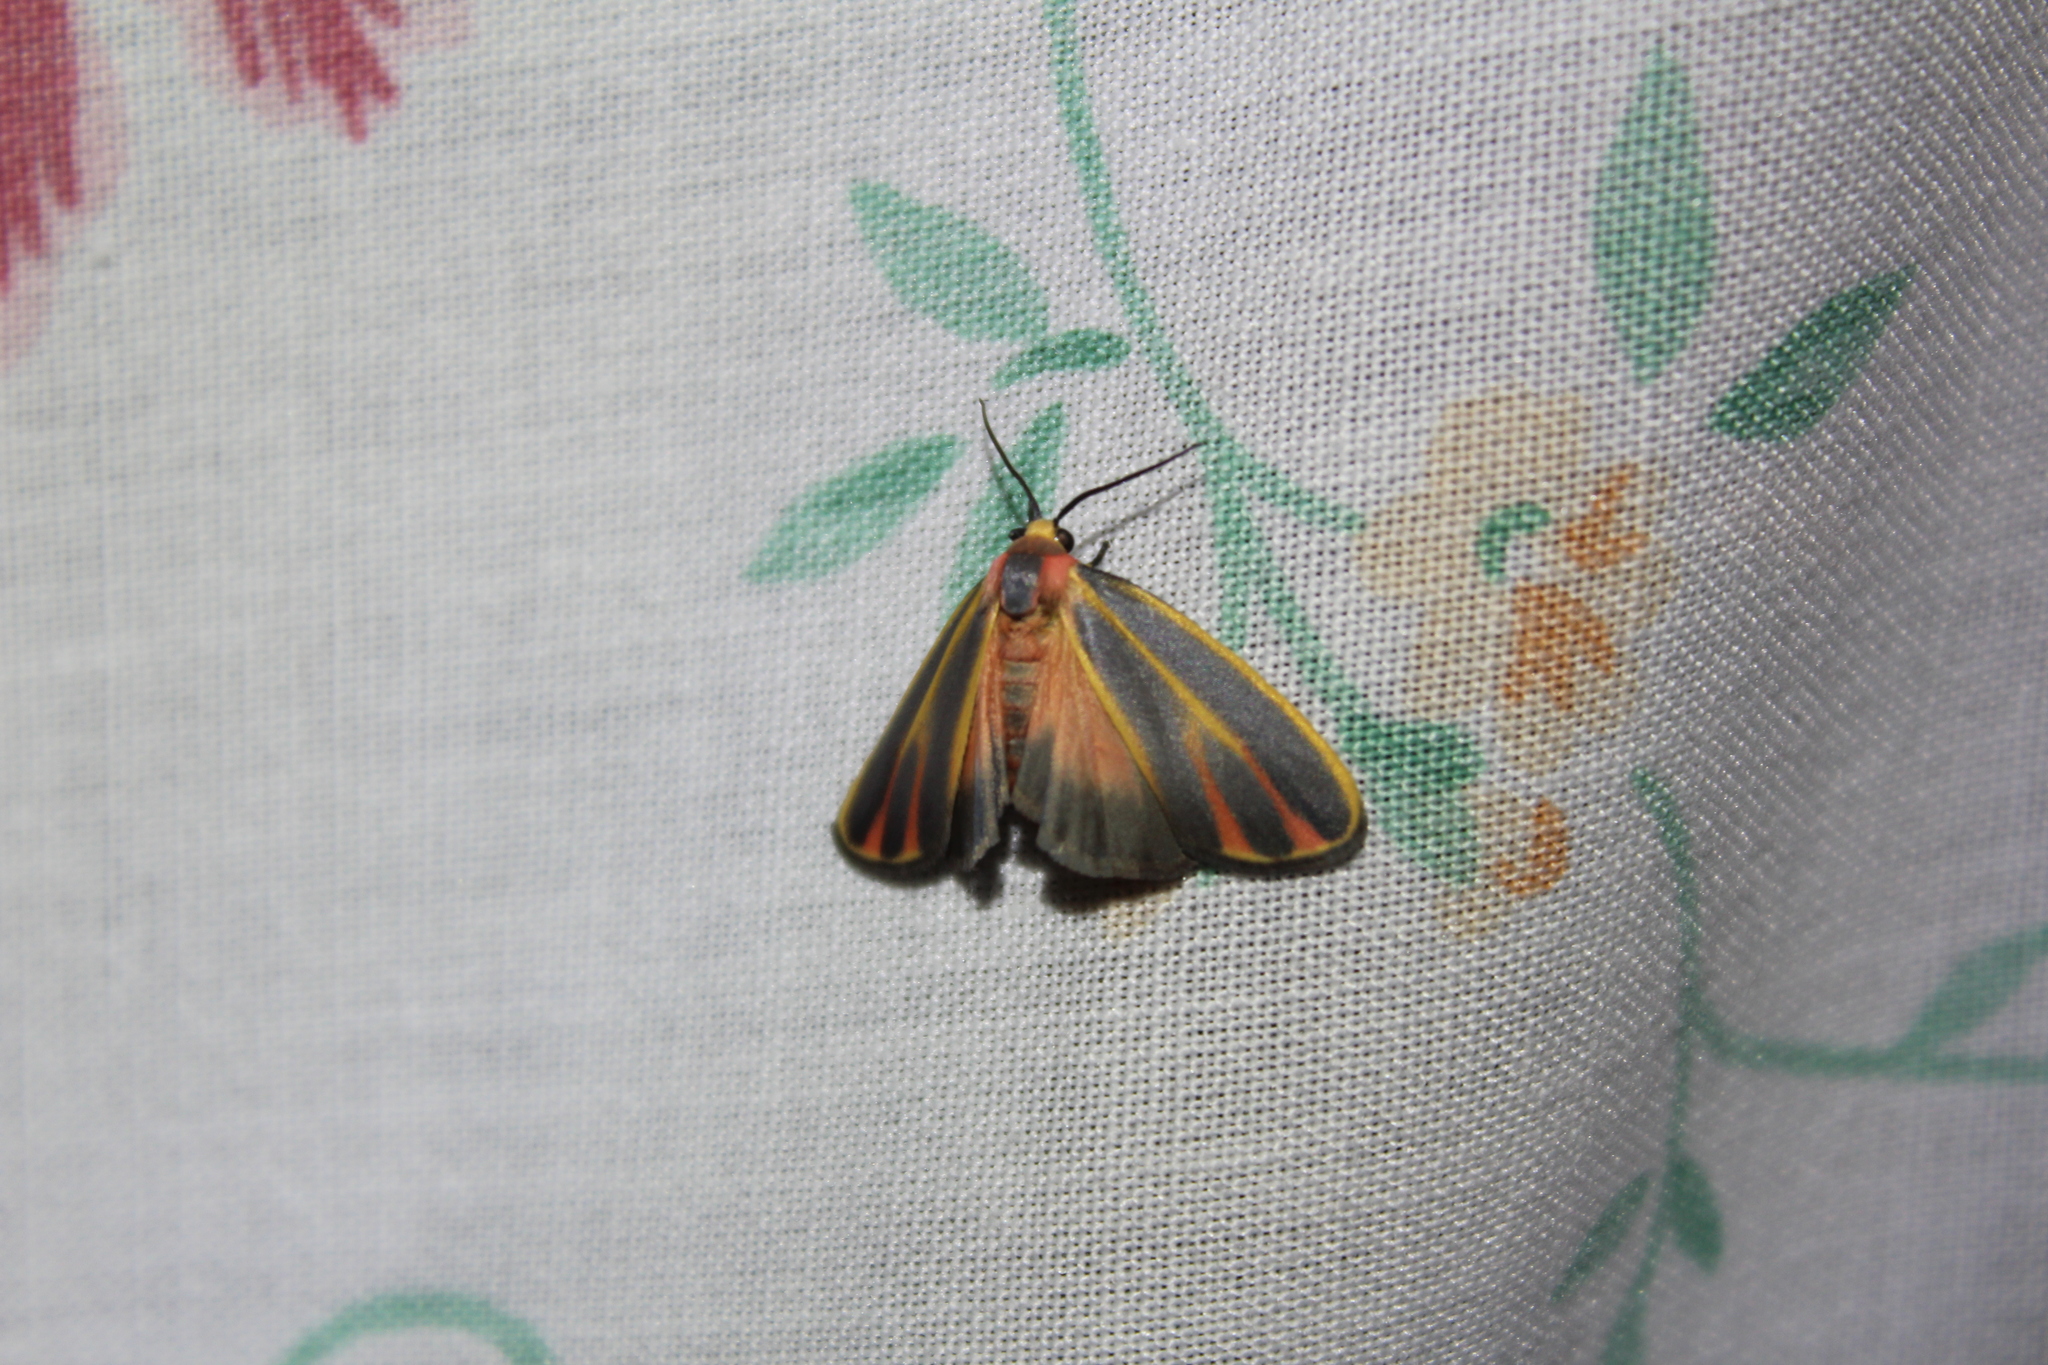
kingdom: Animalia
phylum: Arthropoda
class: Insecta
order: Lepidoptera
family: Erebidae
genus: Hypoprepia
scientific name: Hypoprepia fucosa
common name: Painted lichen moth
